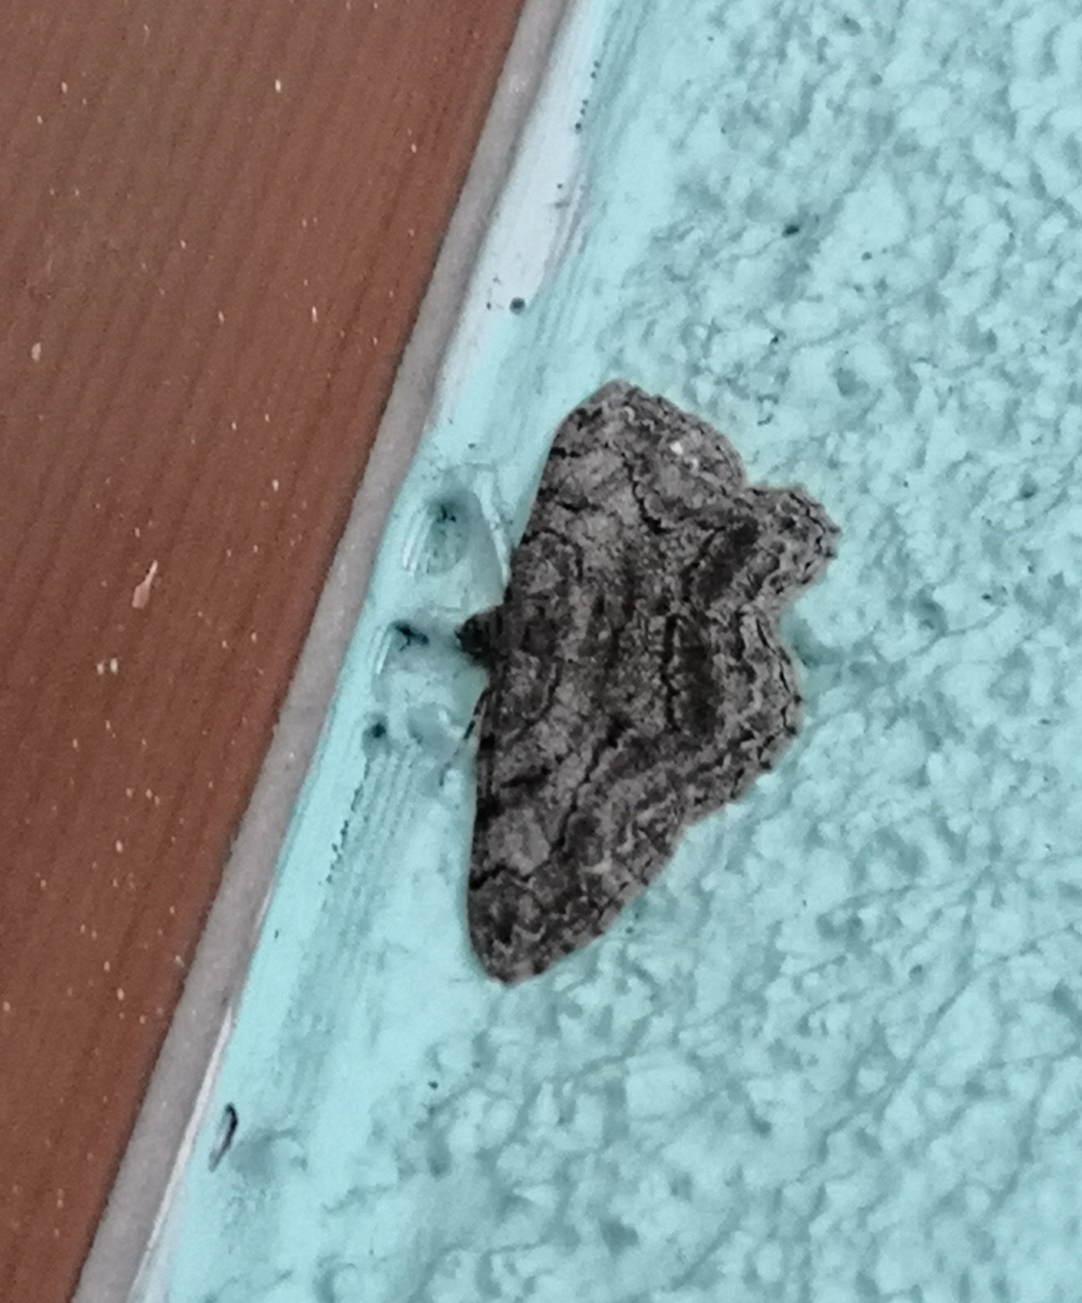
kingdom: Animalia
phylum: Arthropoda
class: Insecta
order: Lepidoptera
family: Geometridae
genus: Peribatodes
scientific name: Peribatodes rhomboidaria
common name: Willow beauty
